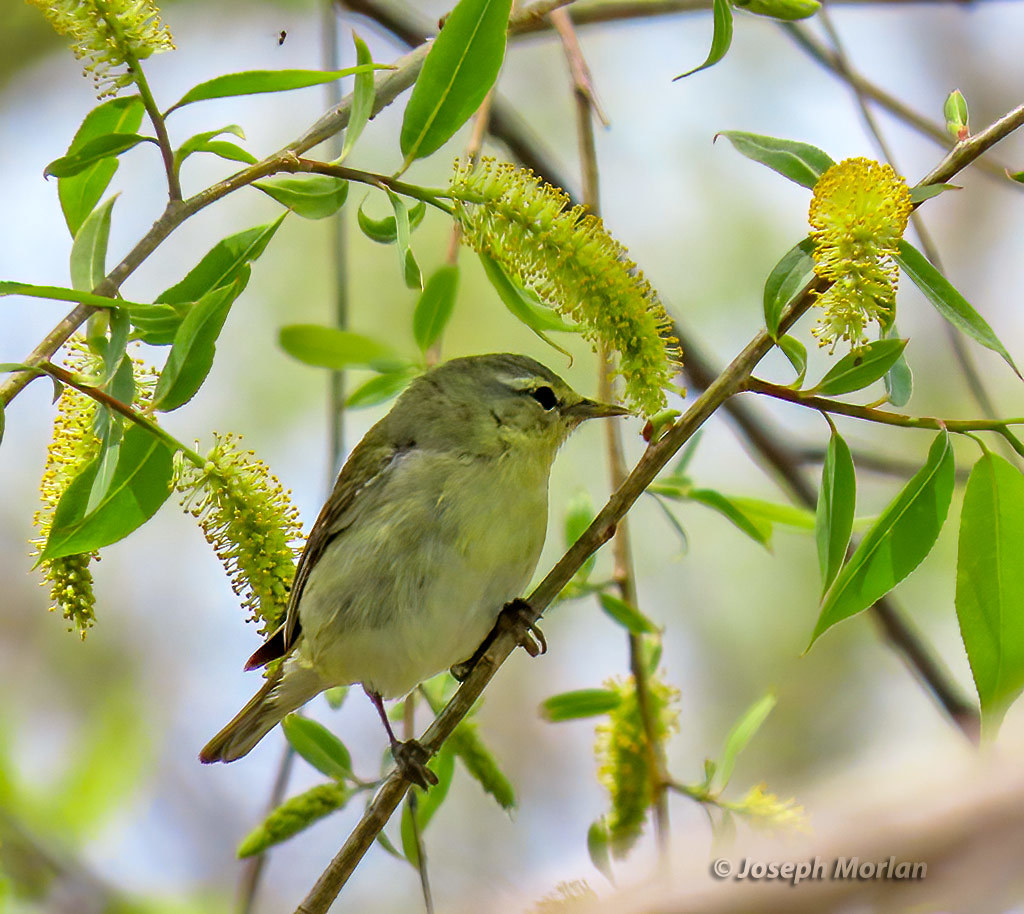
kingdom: Animalia
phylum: Chordata
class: Aves
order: Passeriformes
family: Parulidae
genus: Leiothlypis
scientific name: Leiothlypis peregrina
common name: Tennessee warbler
